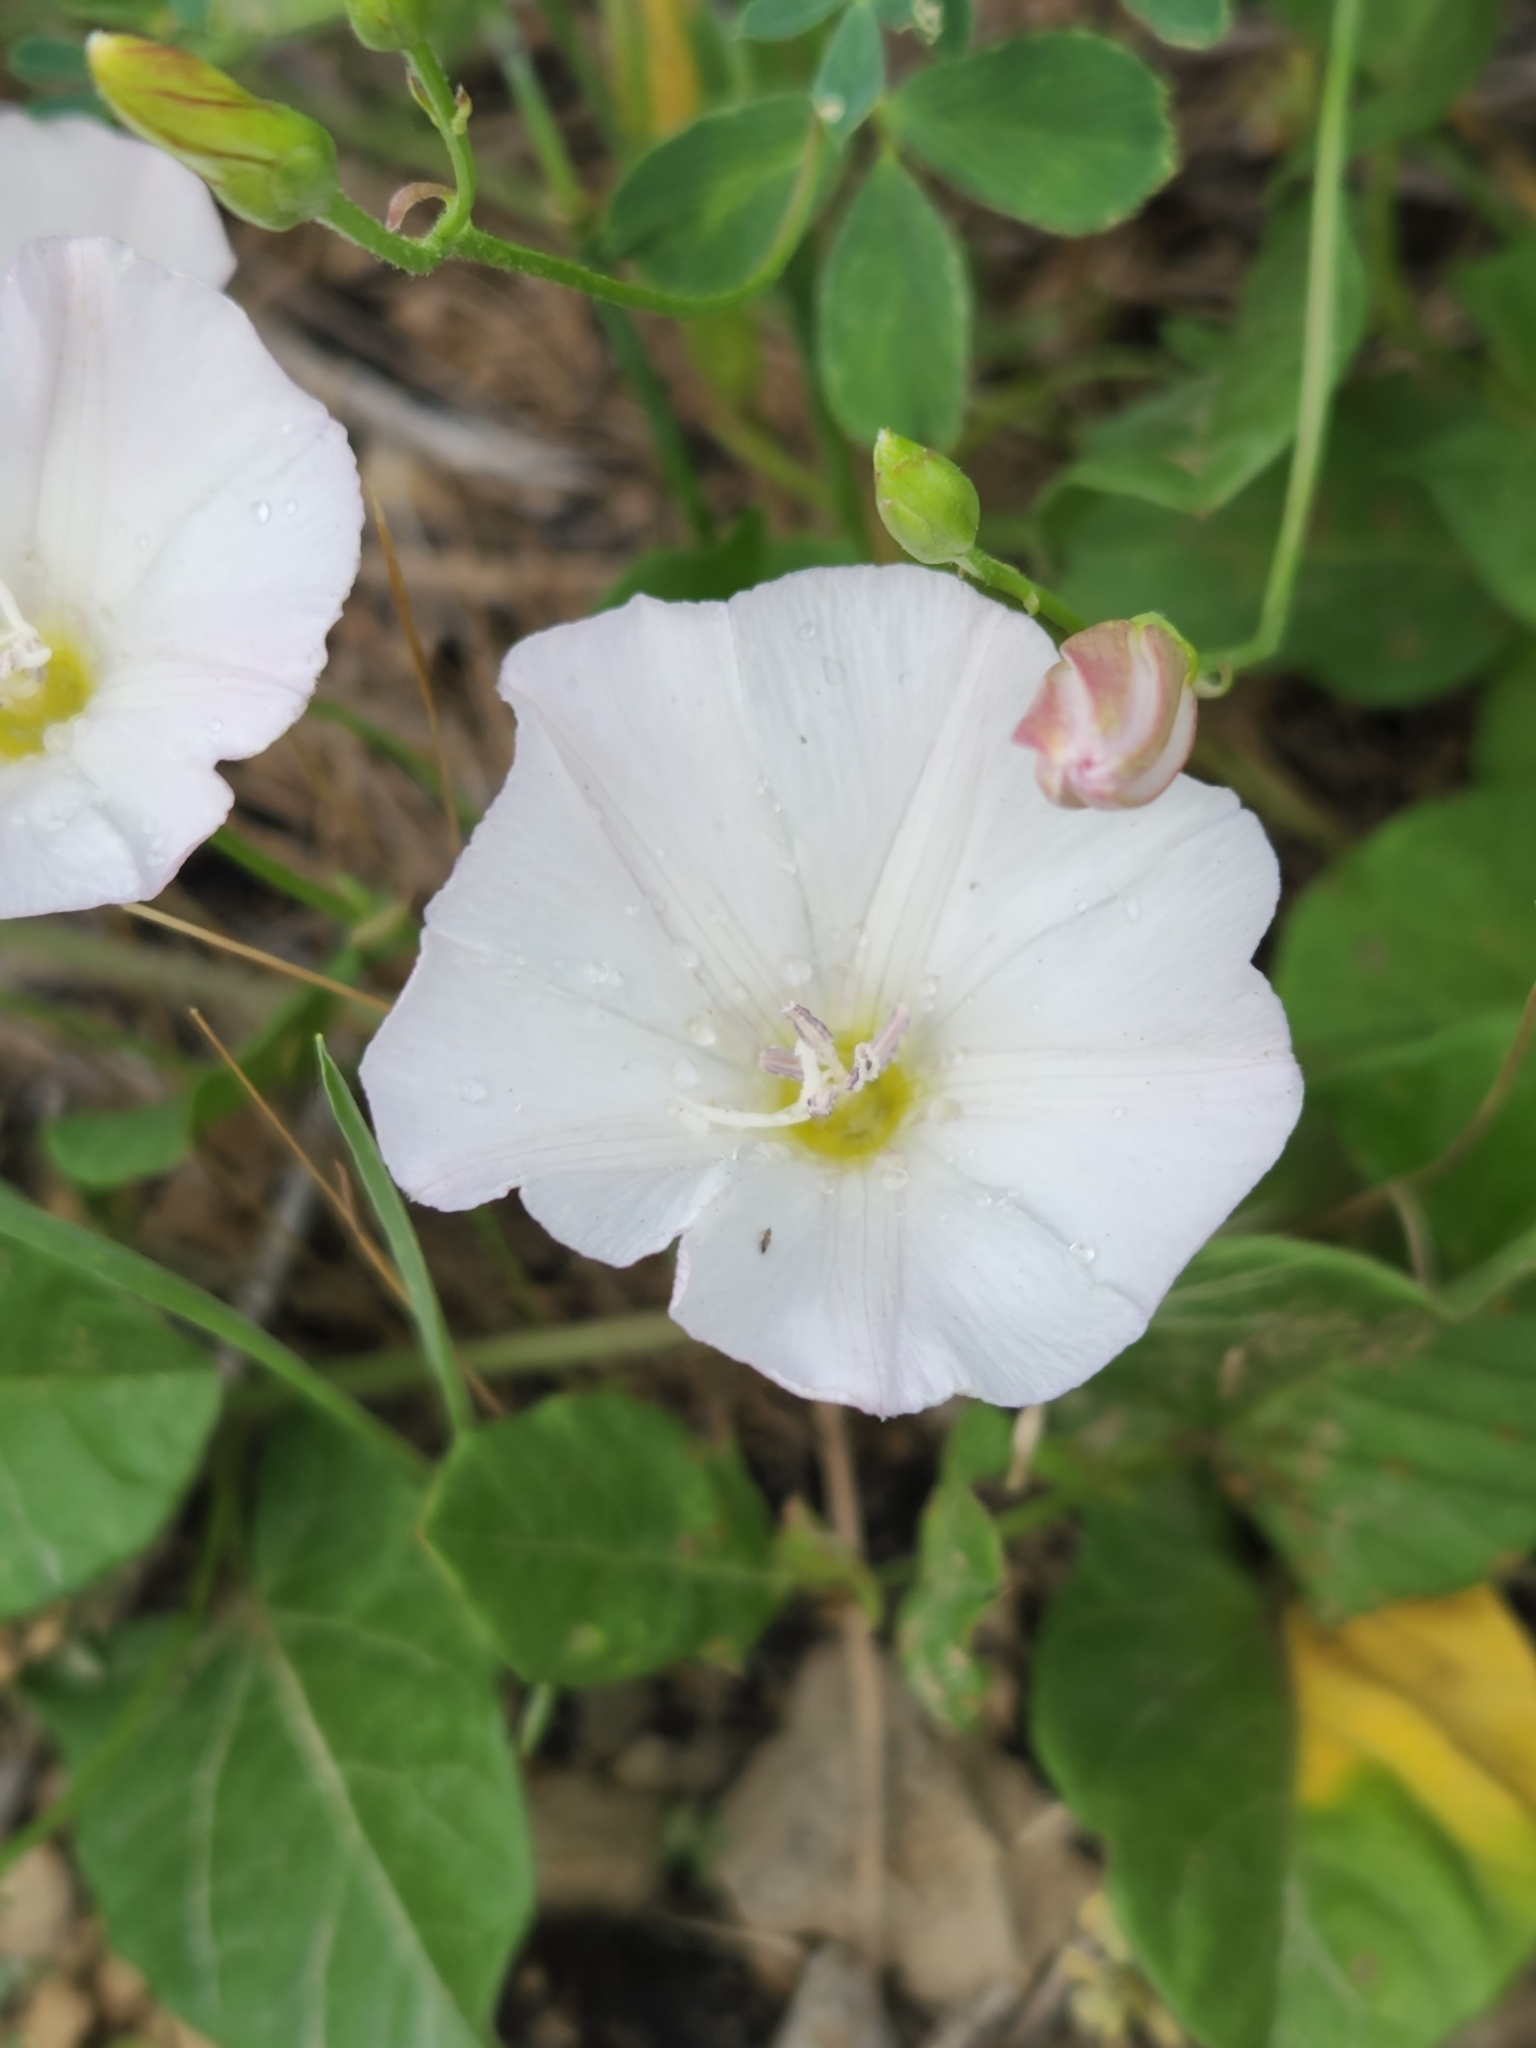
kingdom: Plantae
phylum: Tracheophyta
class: Magnoliopsida
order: Solanales
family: Convolvulaceae
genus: Convolvulus
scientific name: Convolvulus arvensis
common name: Field bindweed
